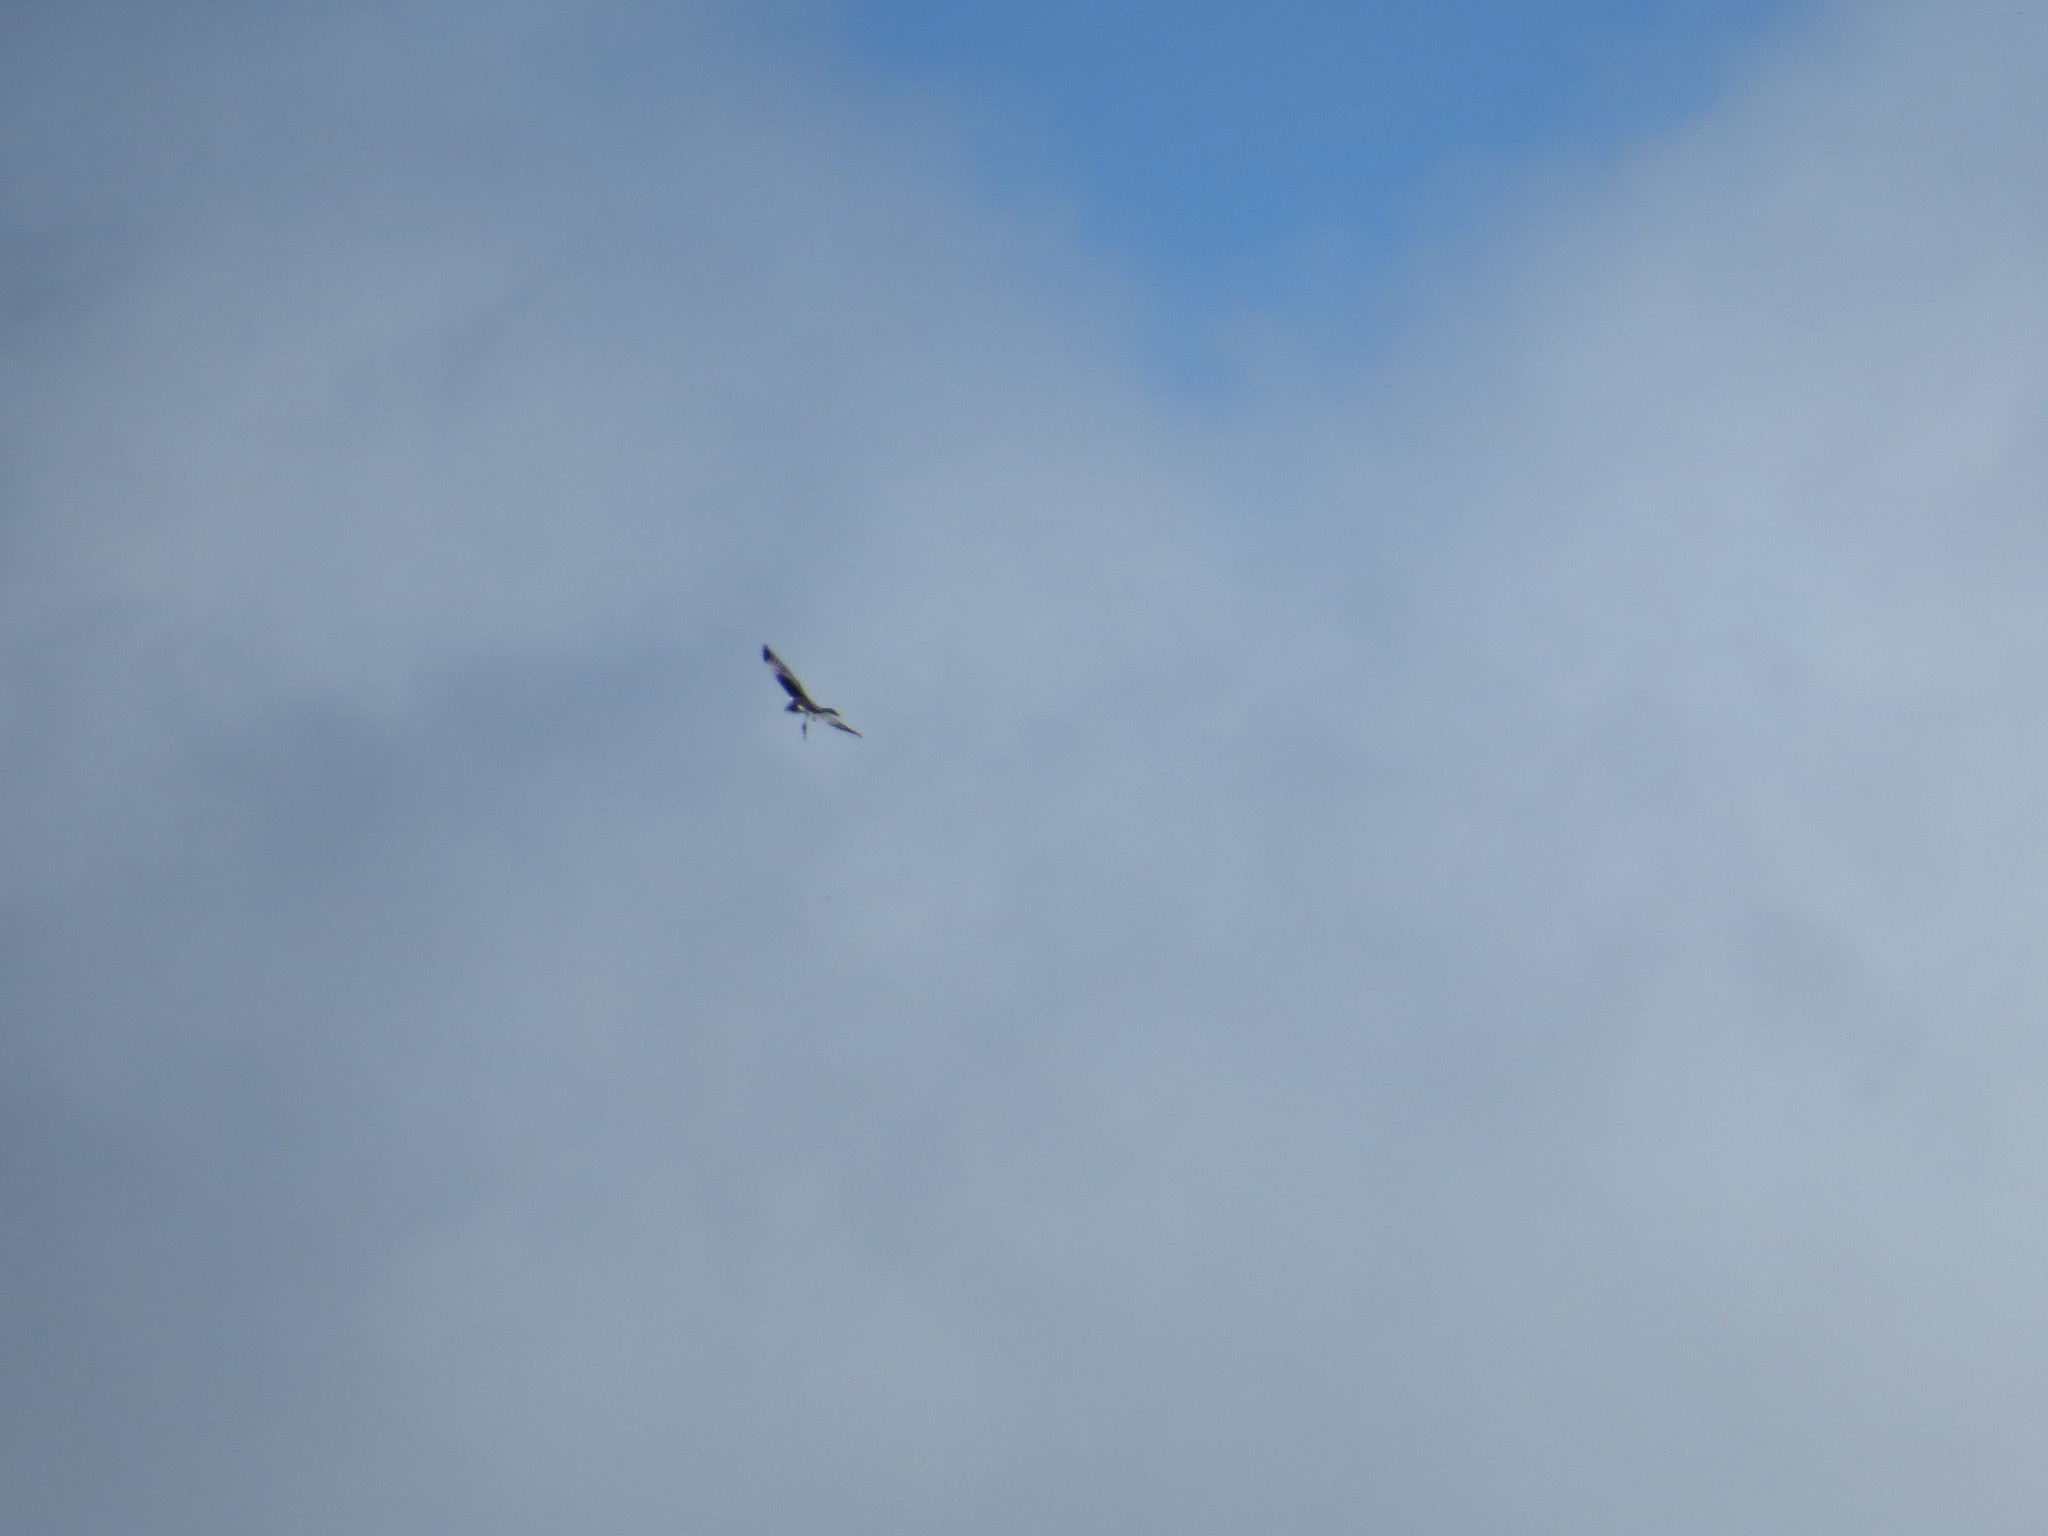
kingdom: Animalia
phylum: Chordata
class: Aves
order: Accipitriformes
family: Accipitridae
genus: Circus
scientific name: Circus buffoni
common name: Long-winged harrier
